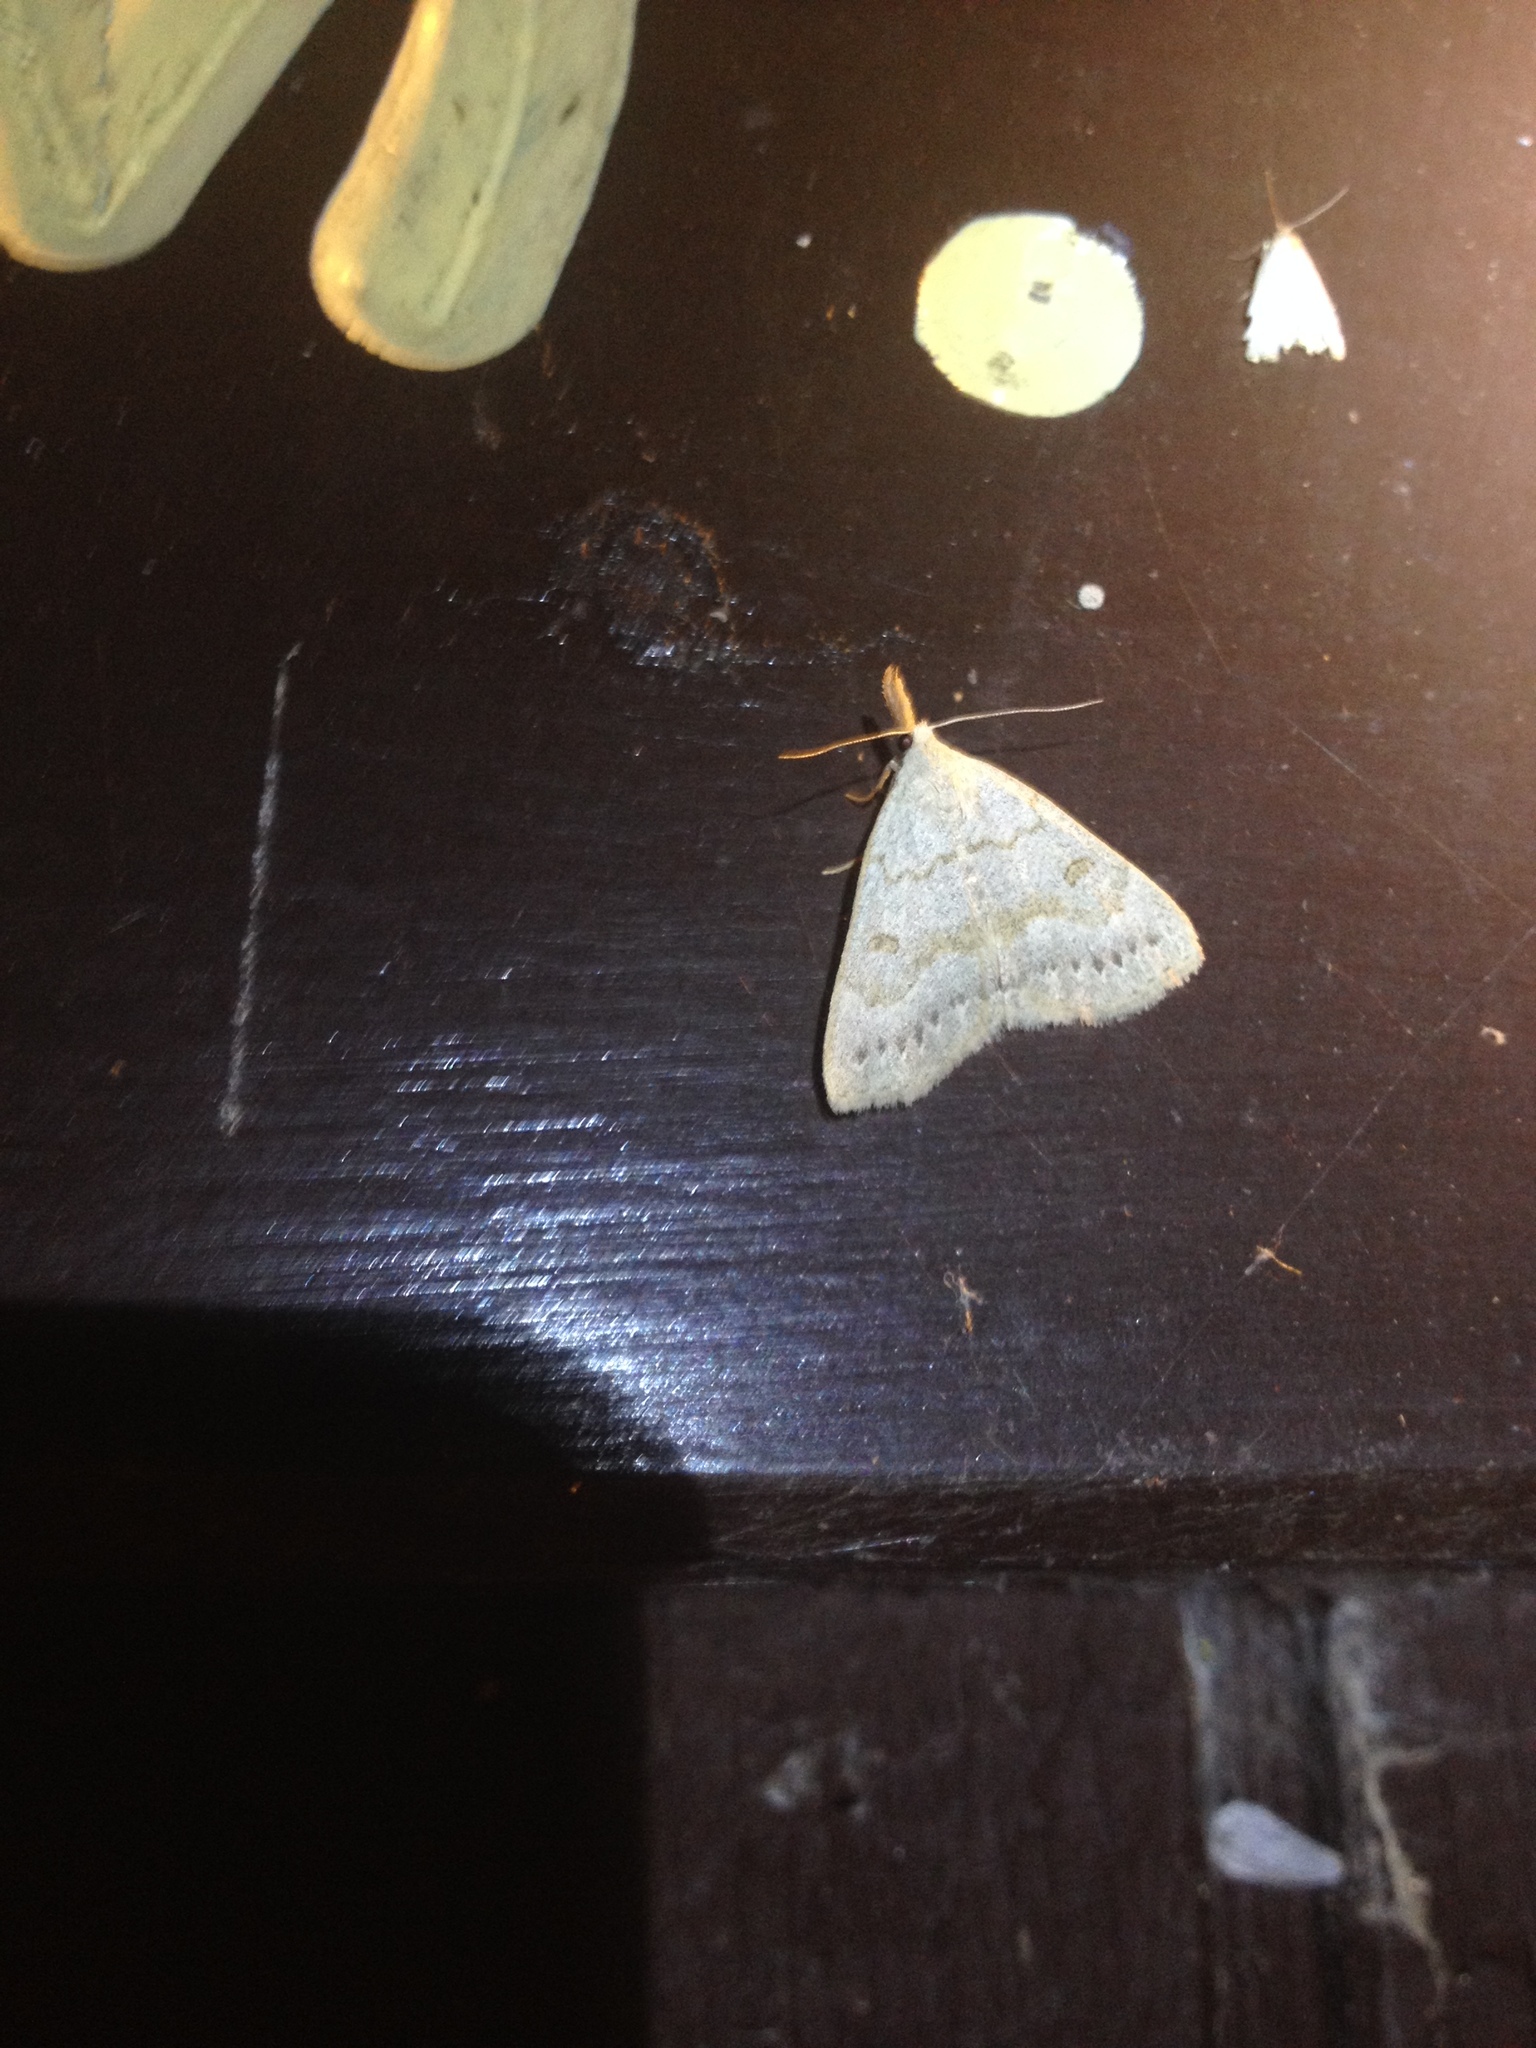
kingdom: Animalia
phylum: Arthropoda
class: Insecta
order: Lepidoptera
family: Erebidae
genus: Macrochilo
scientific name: Macrochilo morbidalis
